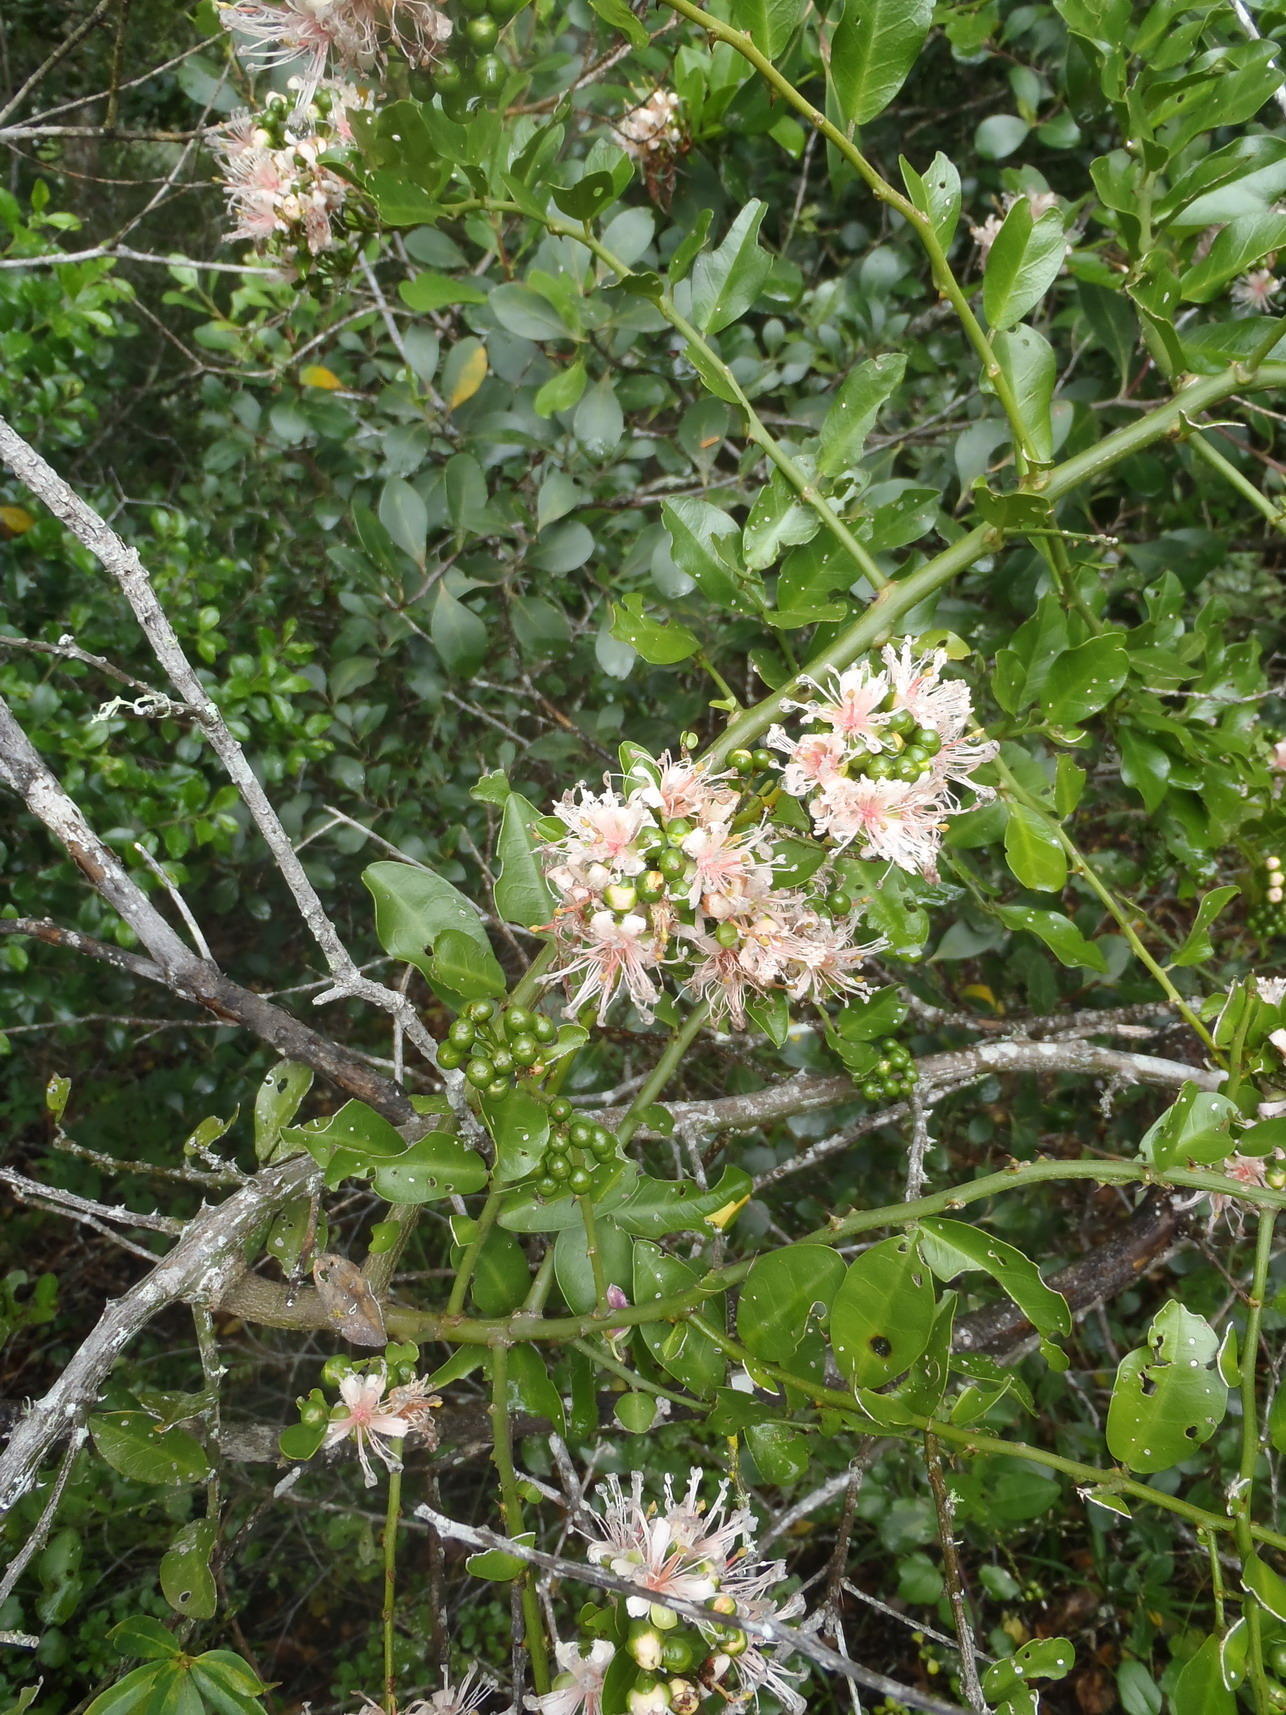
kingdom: Plantae
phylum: Tracheophyta
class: Magnoliopsida
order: Brassicales
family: Capparaceae
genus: Capparis
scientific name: Capparis sepiaria
